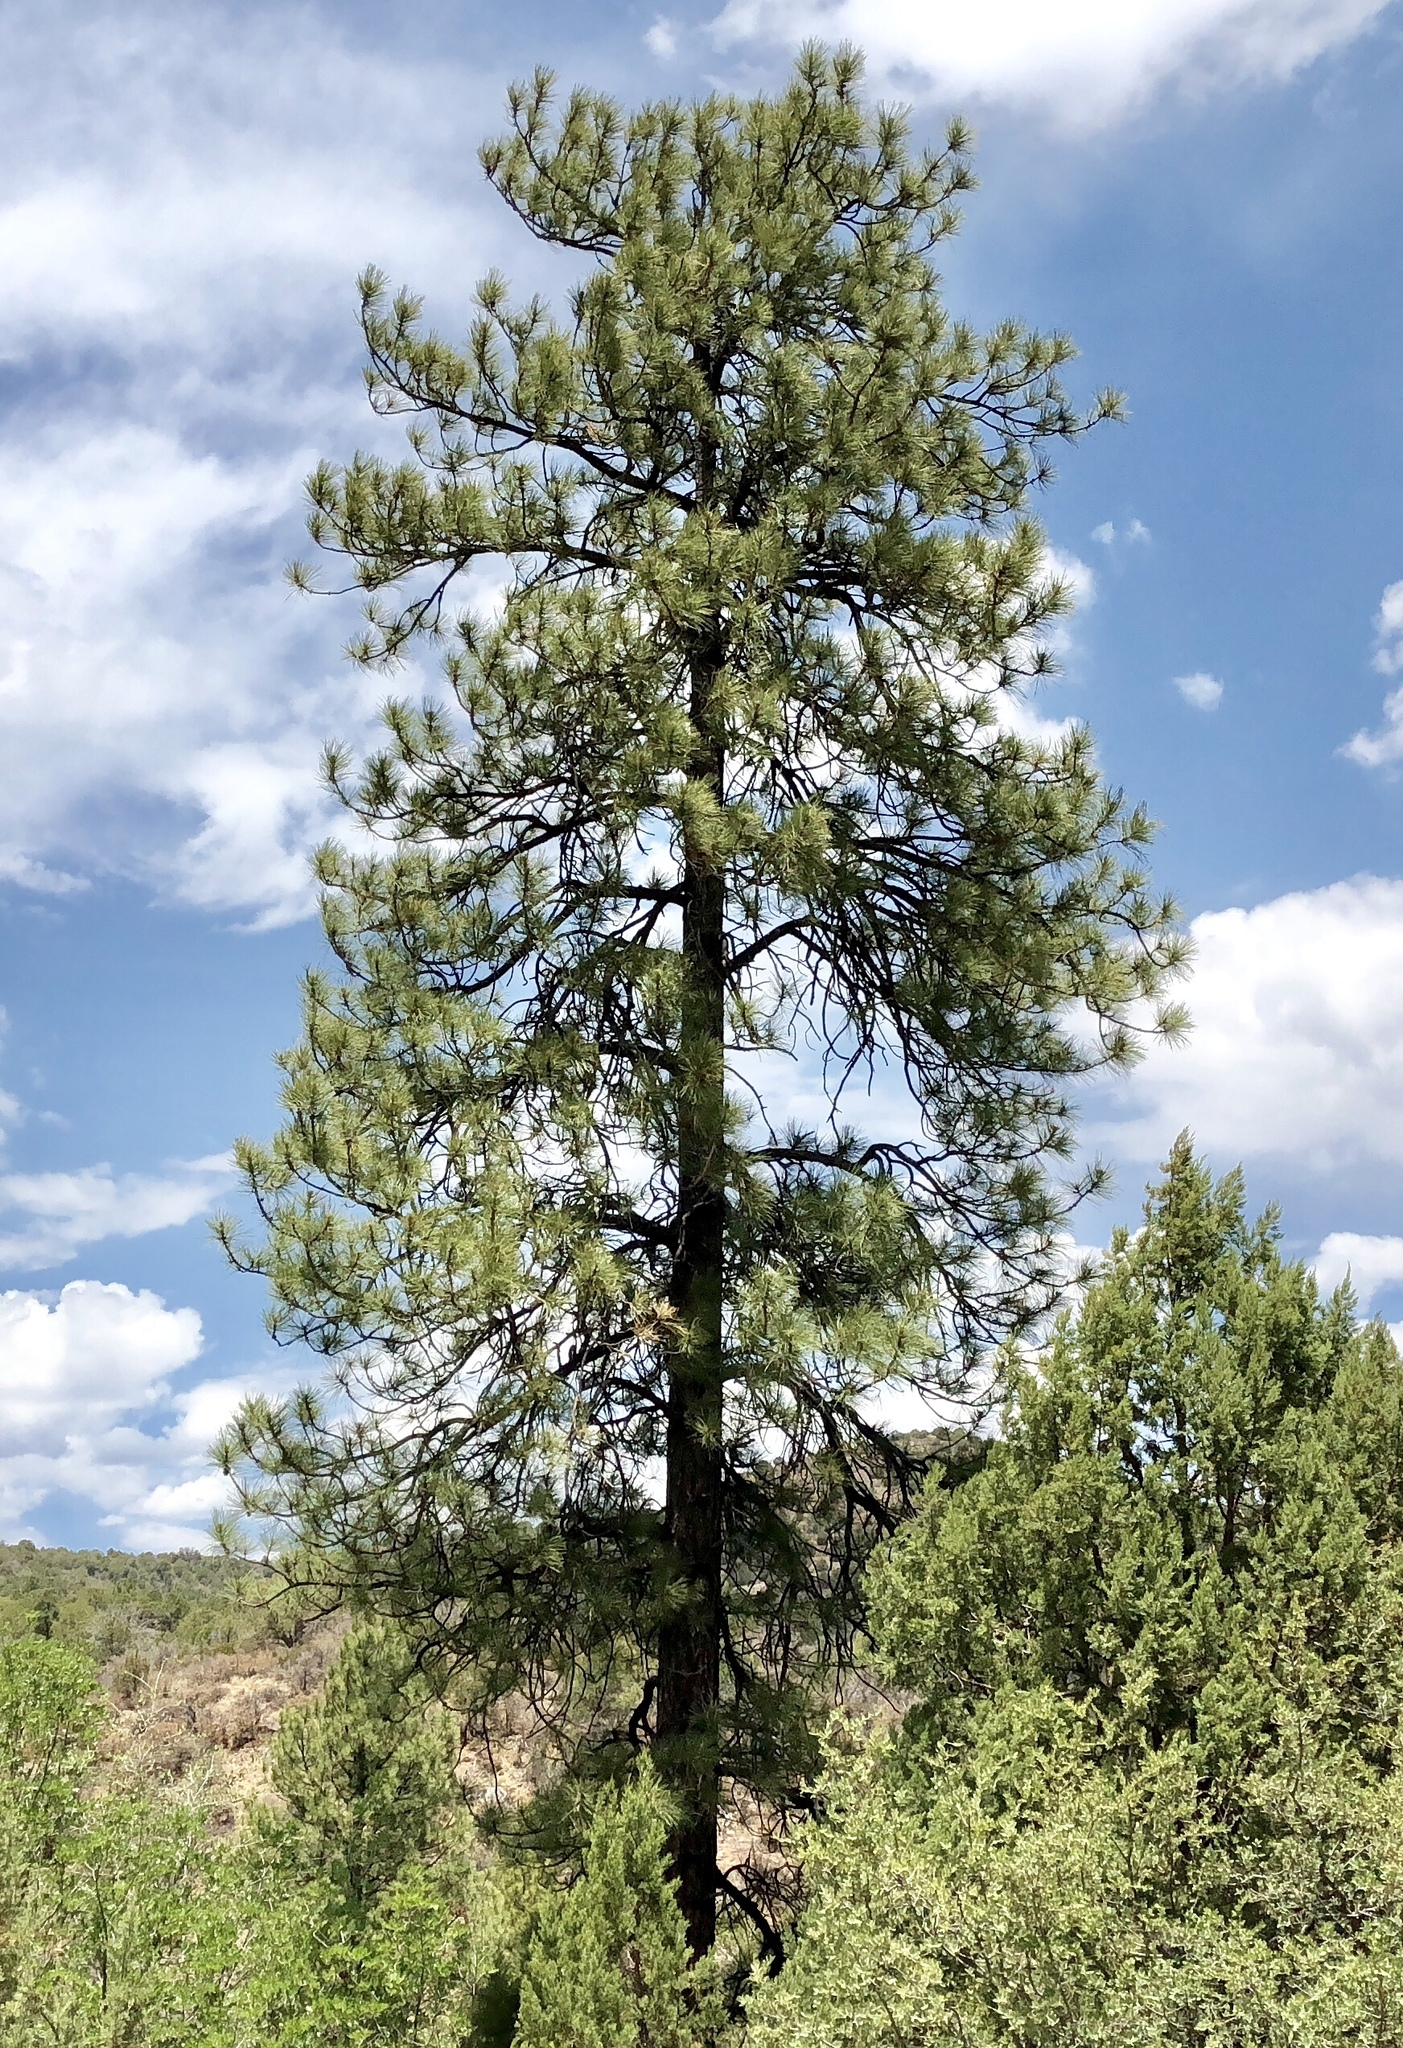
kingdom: Plantae
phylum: Tracheophyta
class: Pinopsida
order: Pinales
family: Pinaceae
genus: Pinus
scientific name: Pinus ponderosa
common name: Western yellow-pine
